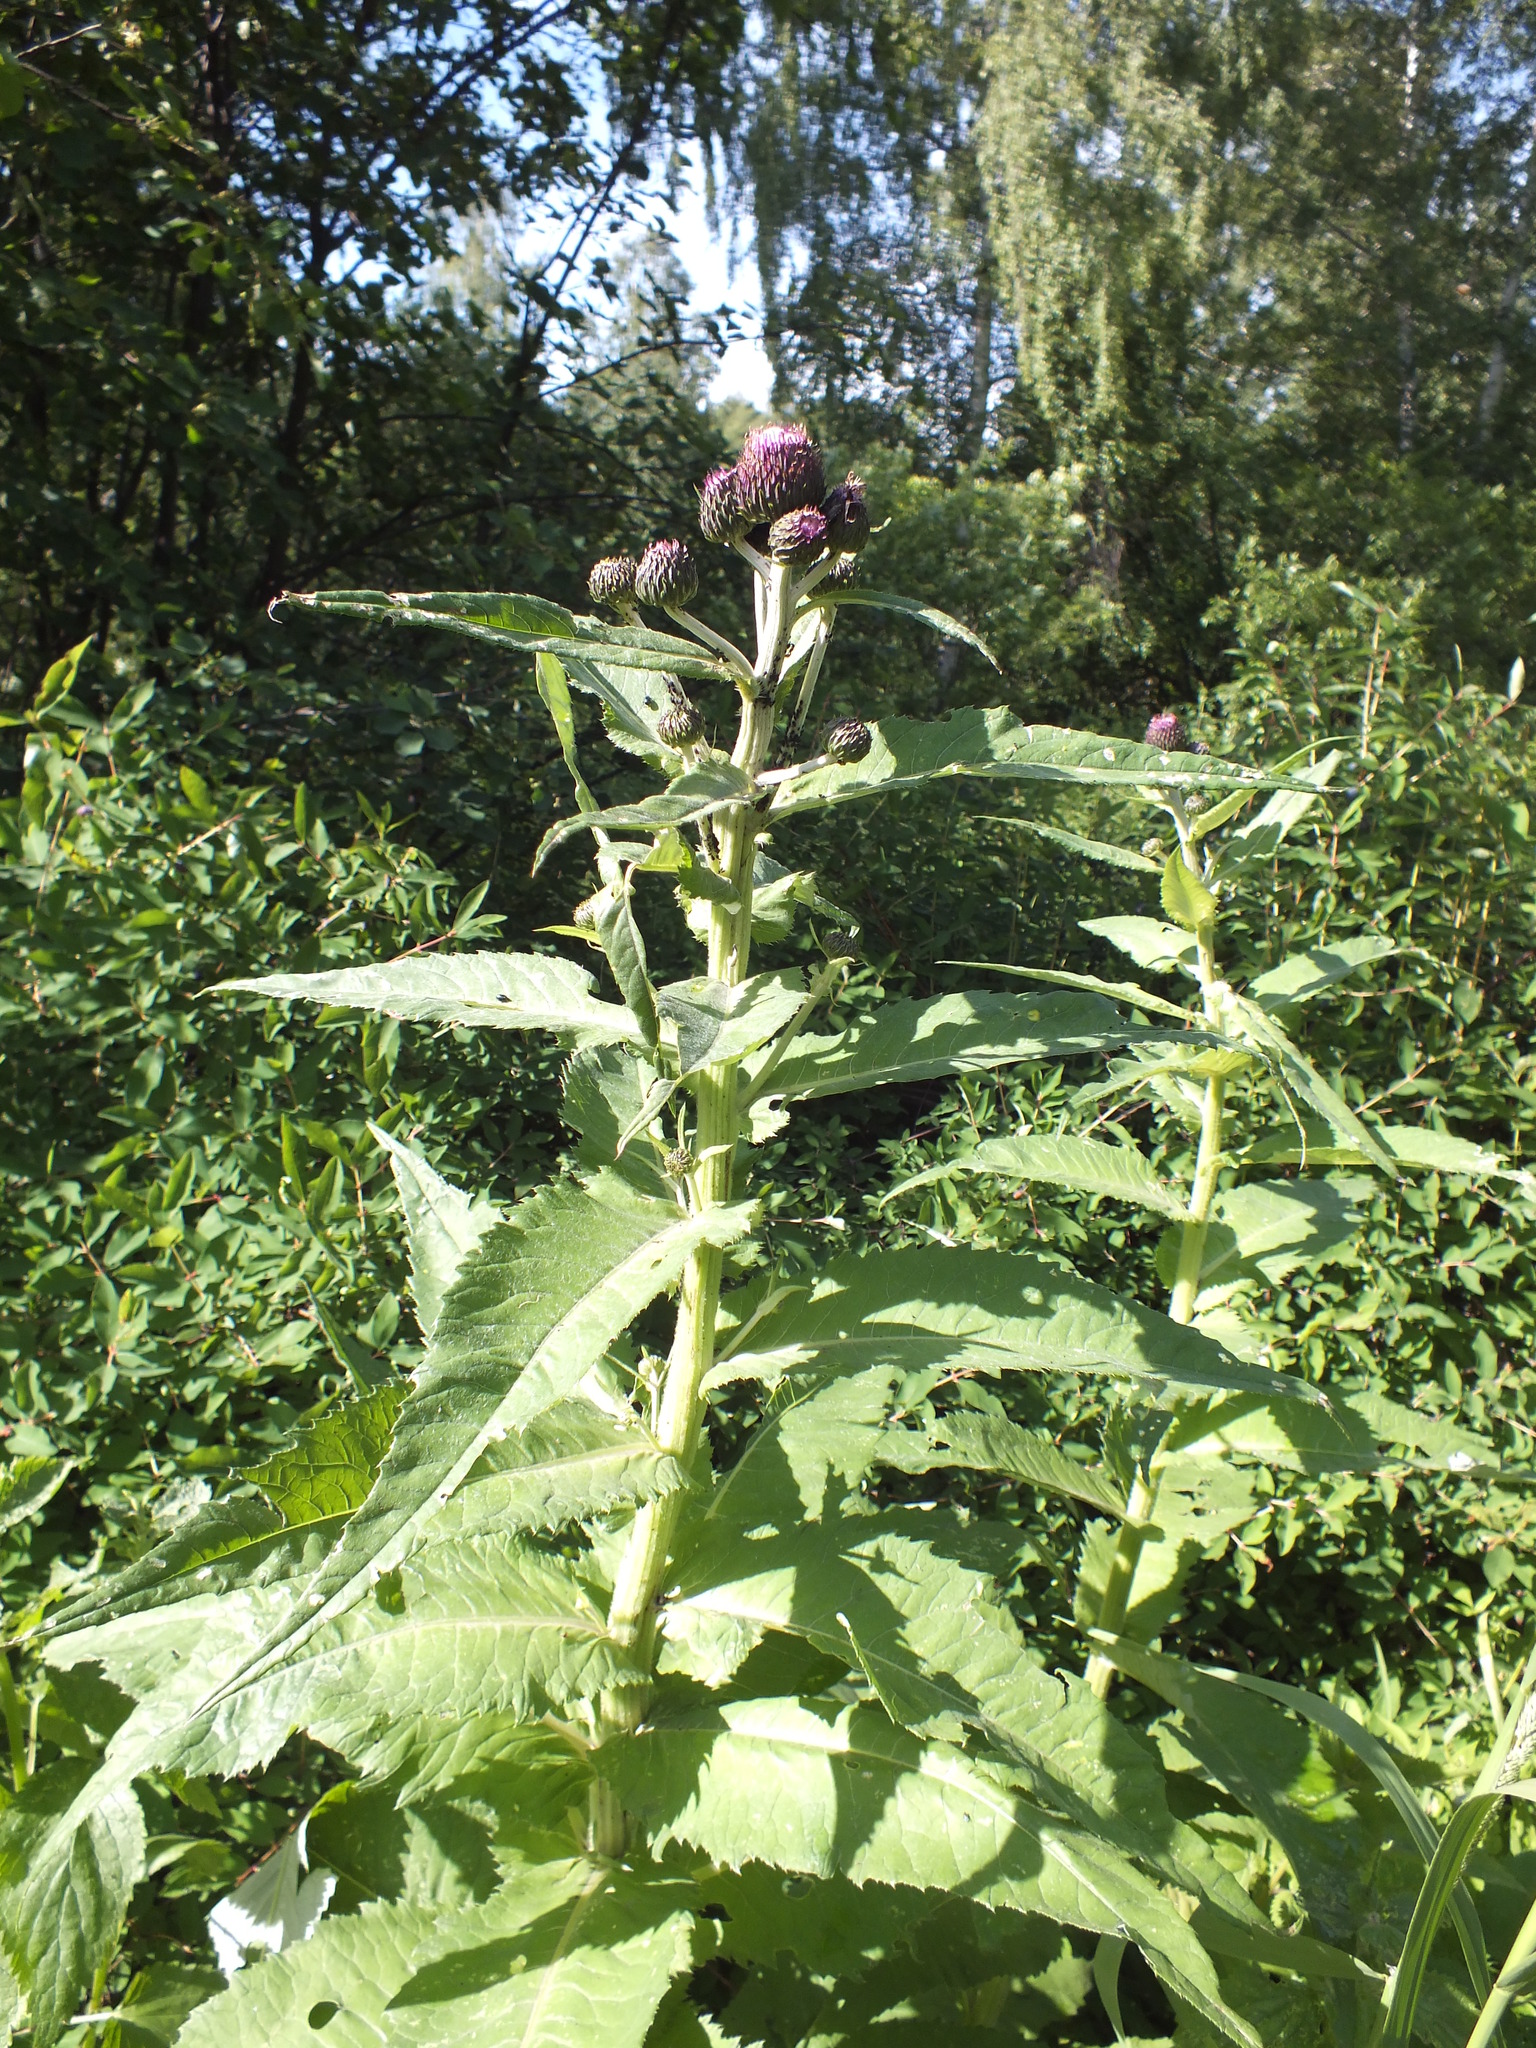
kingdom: Plantae
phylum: Tracheophyta
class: Magnoliopsida
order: Asterales
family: Asteraceae
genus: Cirsium
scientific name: Cirsium helenioides
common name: Melancholy thistle
